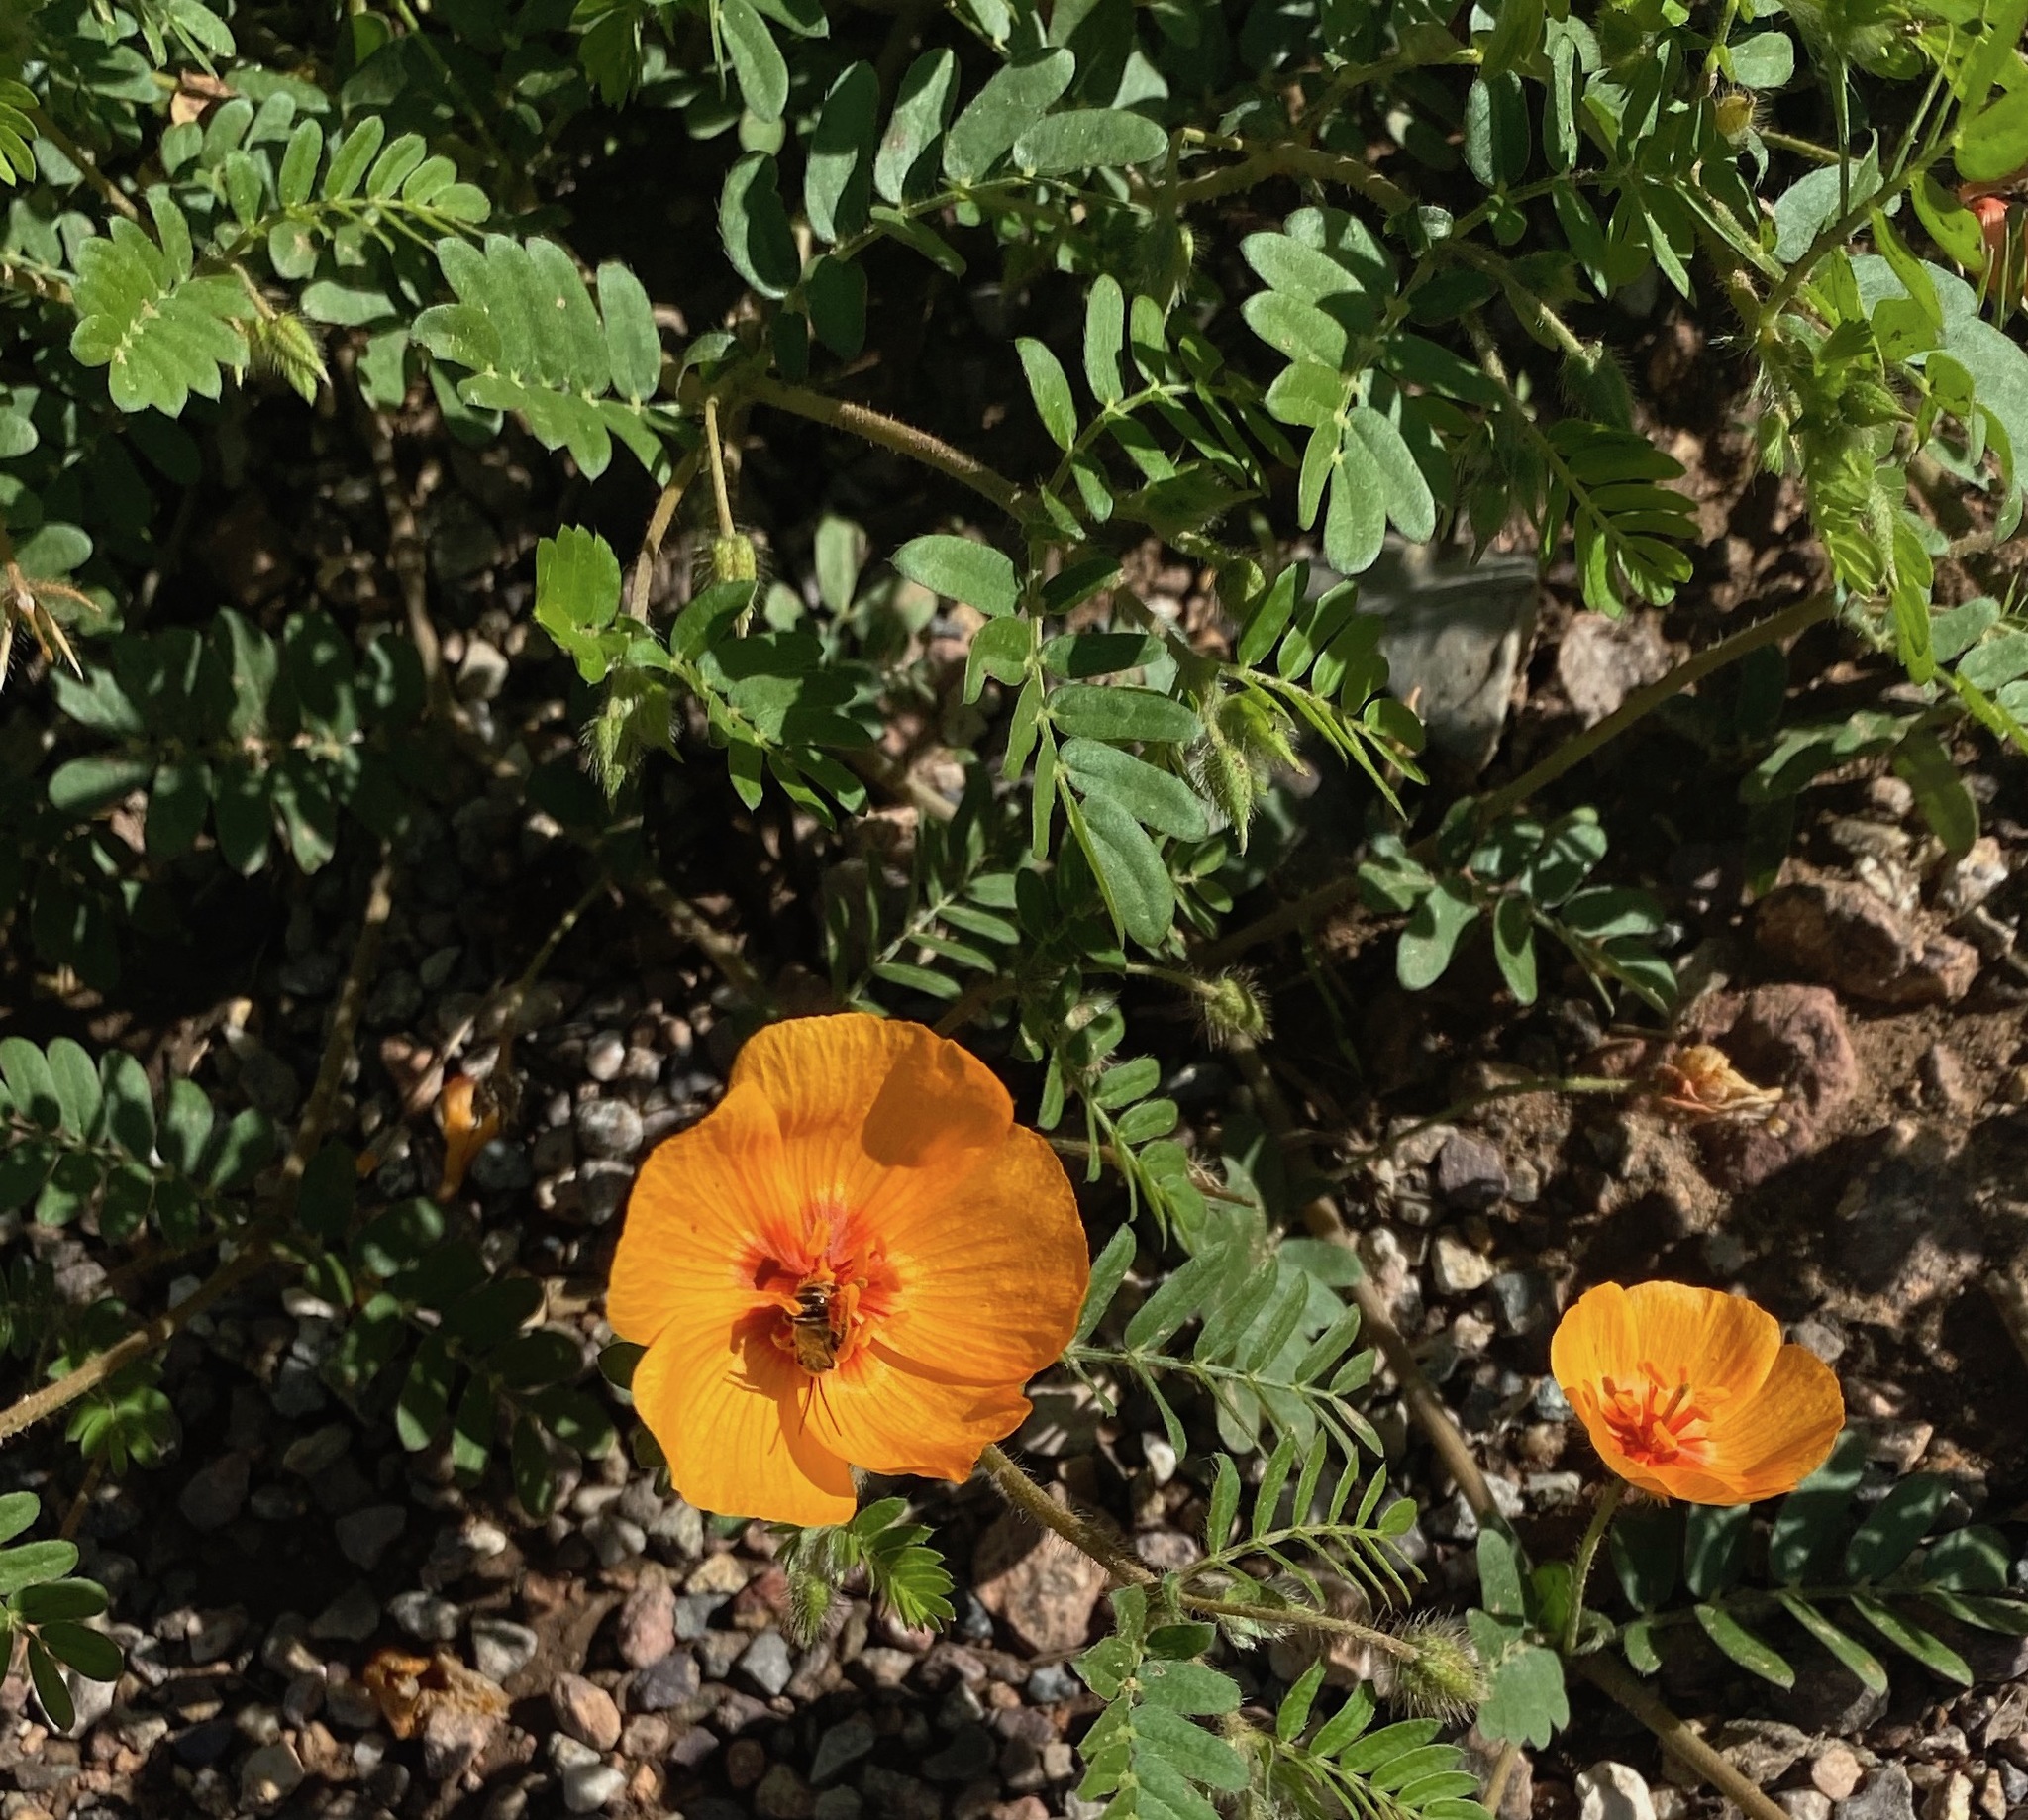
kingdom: Plantae
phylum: Tracheophyta
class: Magnoliopsida
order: Zygophyllales
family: Zygophyllaceae
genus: Kallstroemia
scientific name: Kallstroemia grandiflora
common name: Arizona-poppy
